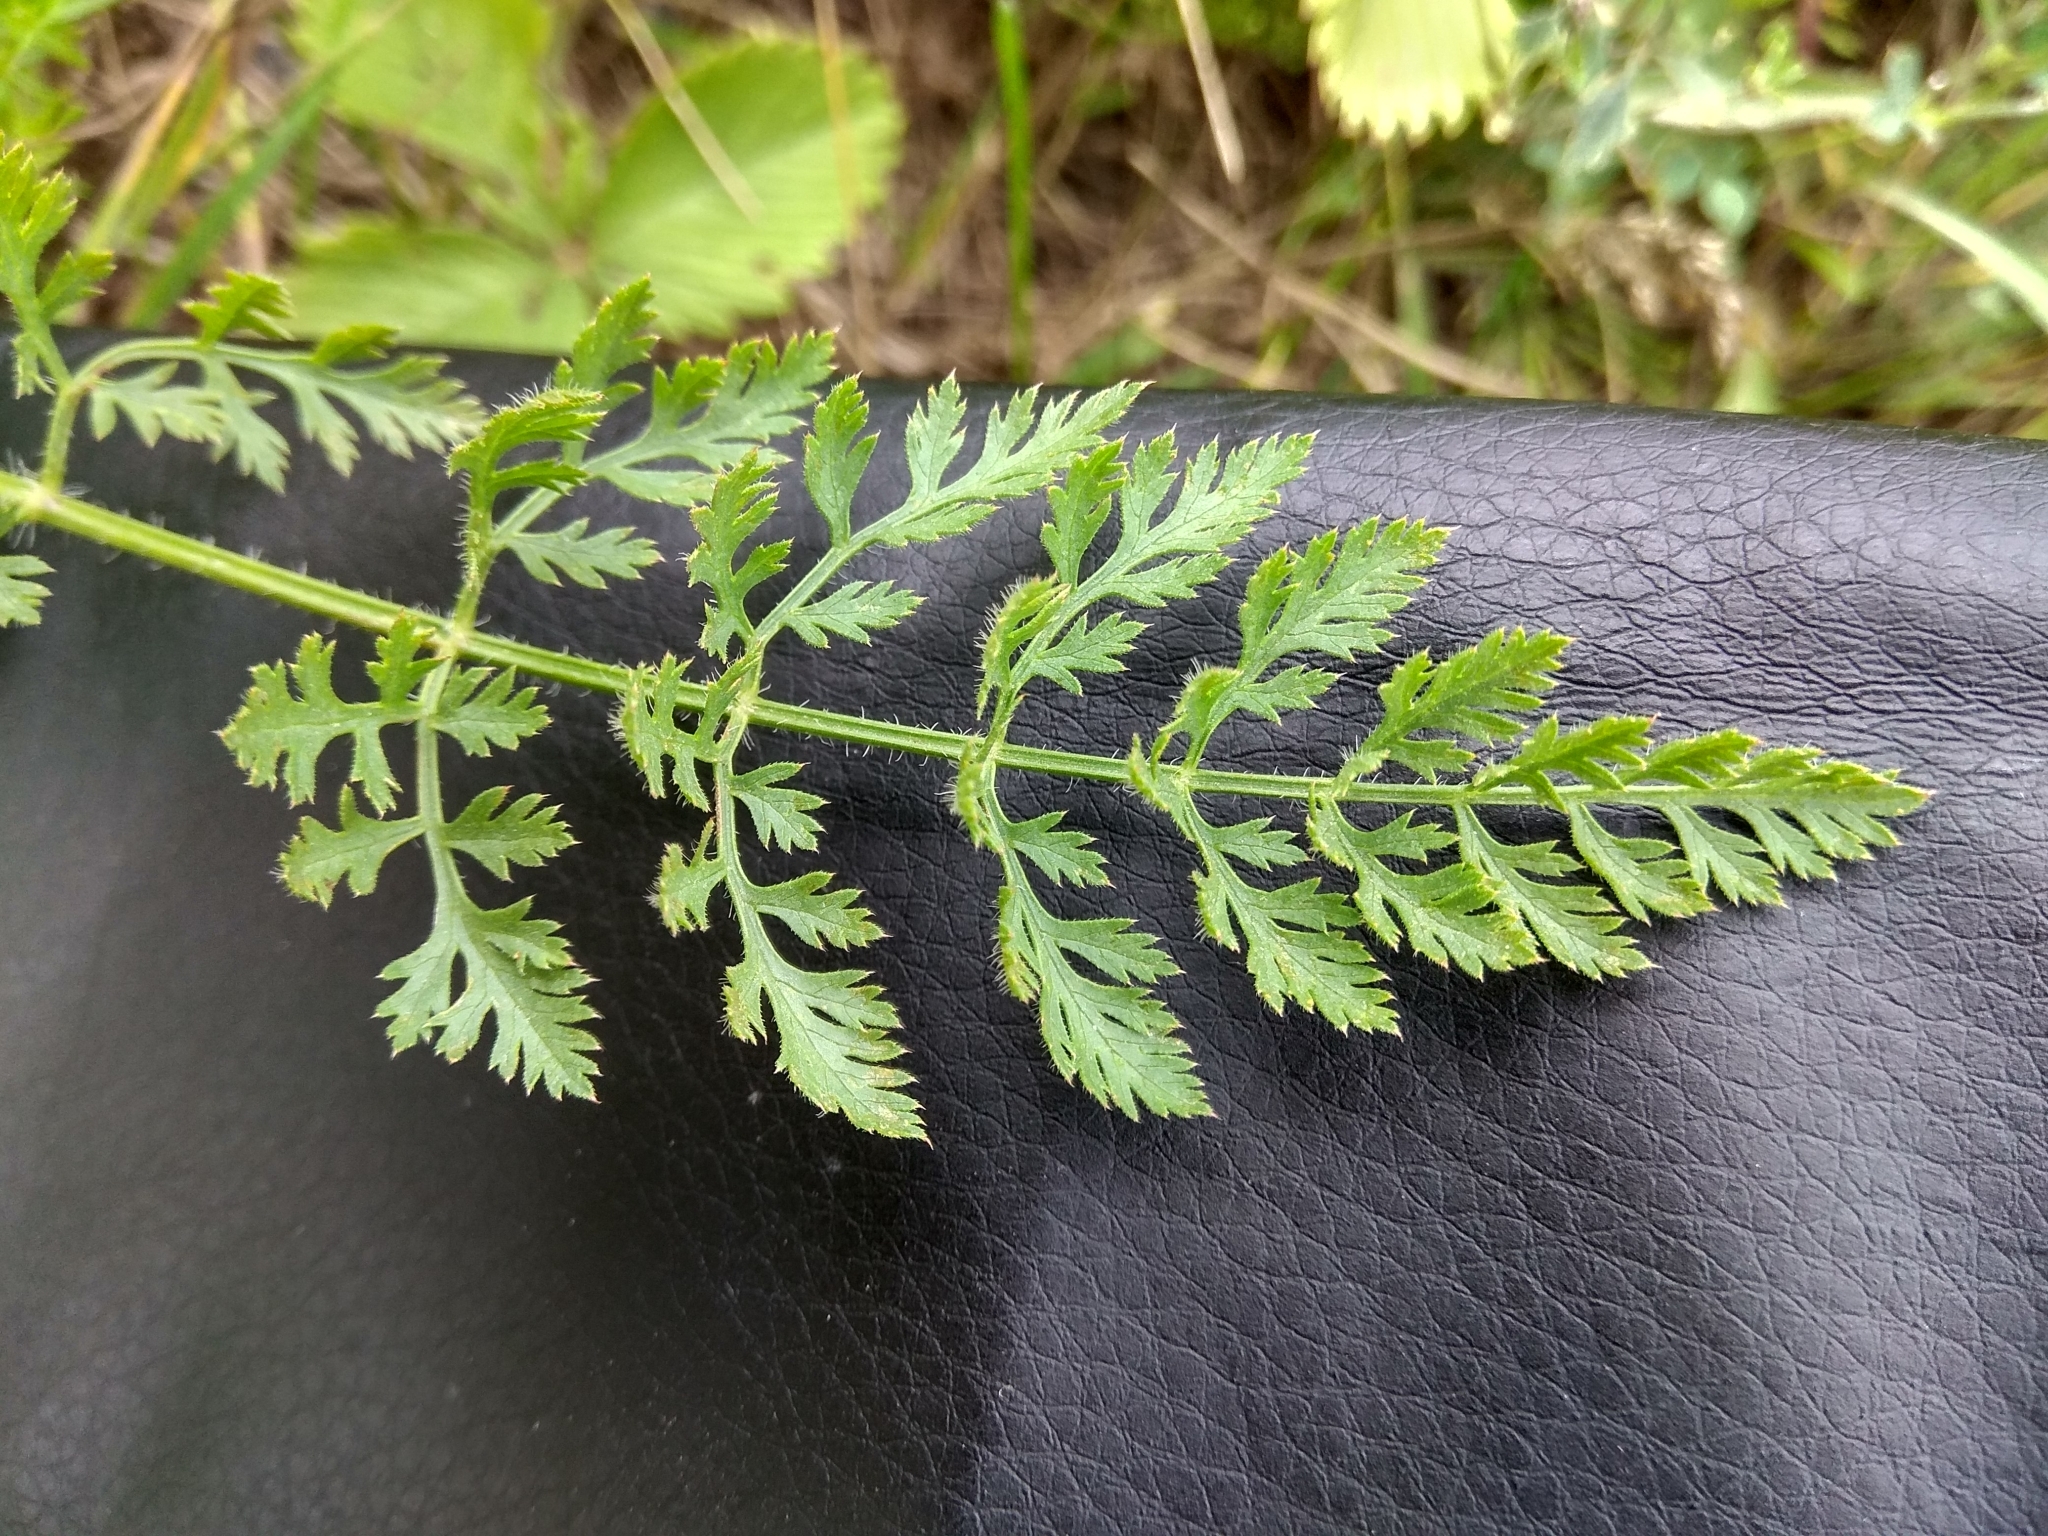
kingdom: Plantae
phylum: Tracheophyta
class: Magnoliopsida
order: Apiales
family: Apiaceae
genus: Daucus
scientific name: Daucus carota
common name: Wild carrot
